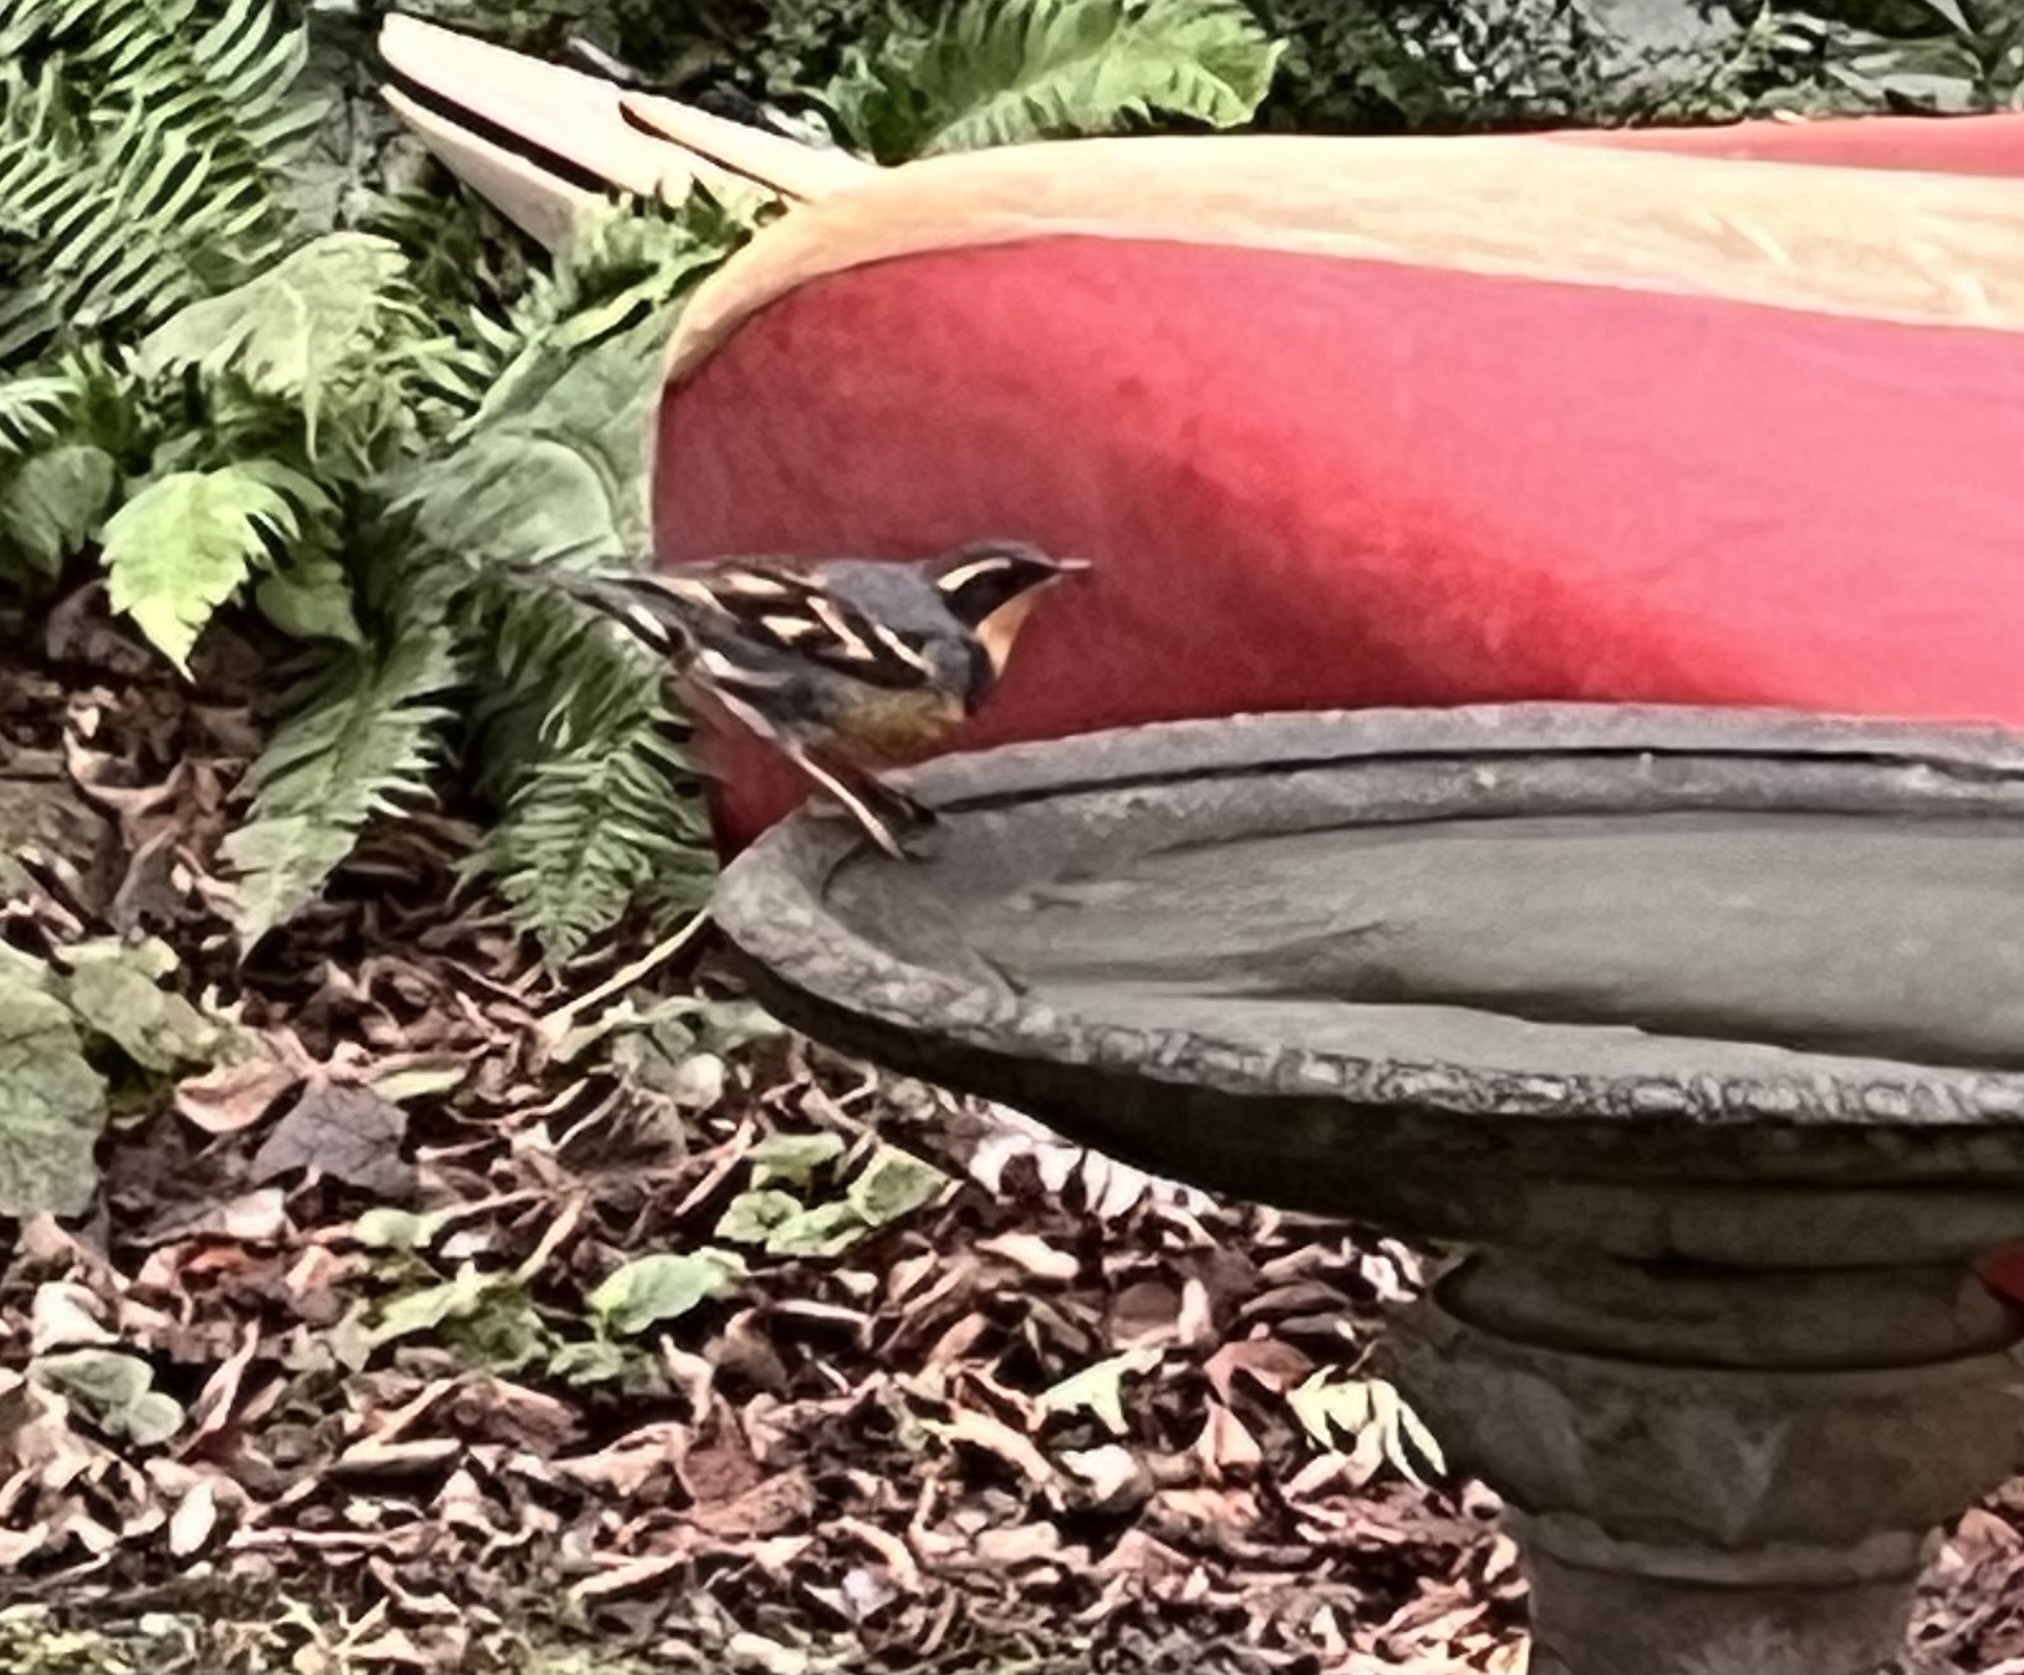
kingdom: Animalia
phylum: Chordata
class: Aves
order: Passeriformes
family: Turdidae
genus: Ixoreus
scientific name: Ixoreus naevius
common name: Varied thrush
